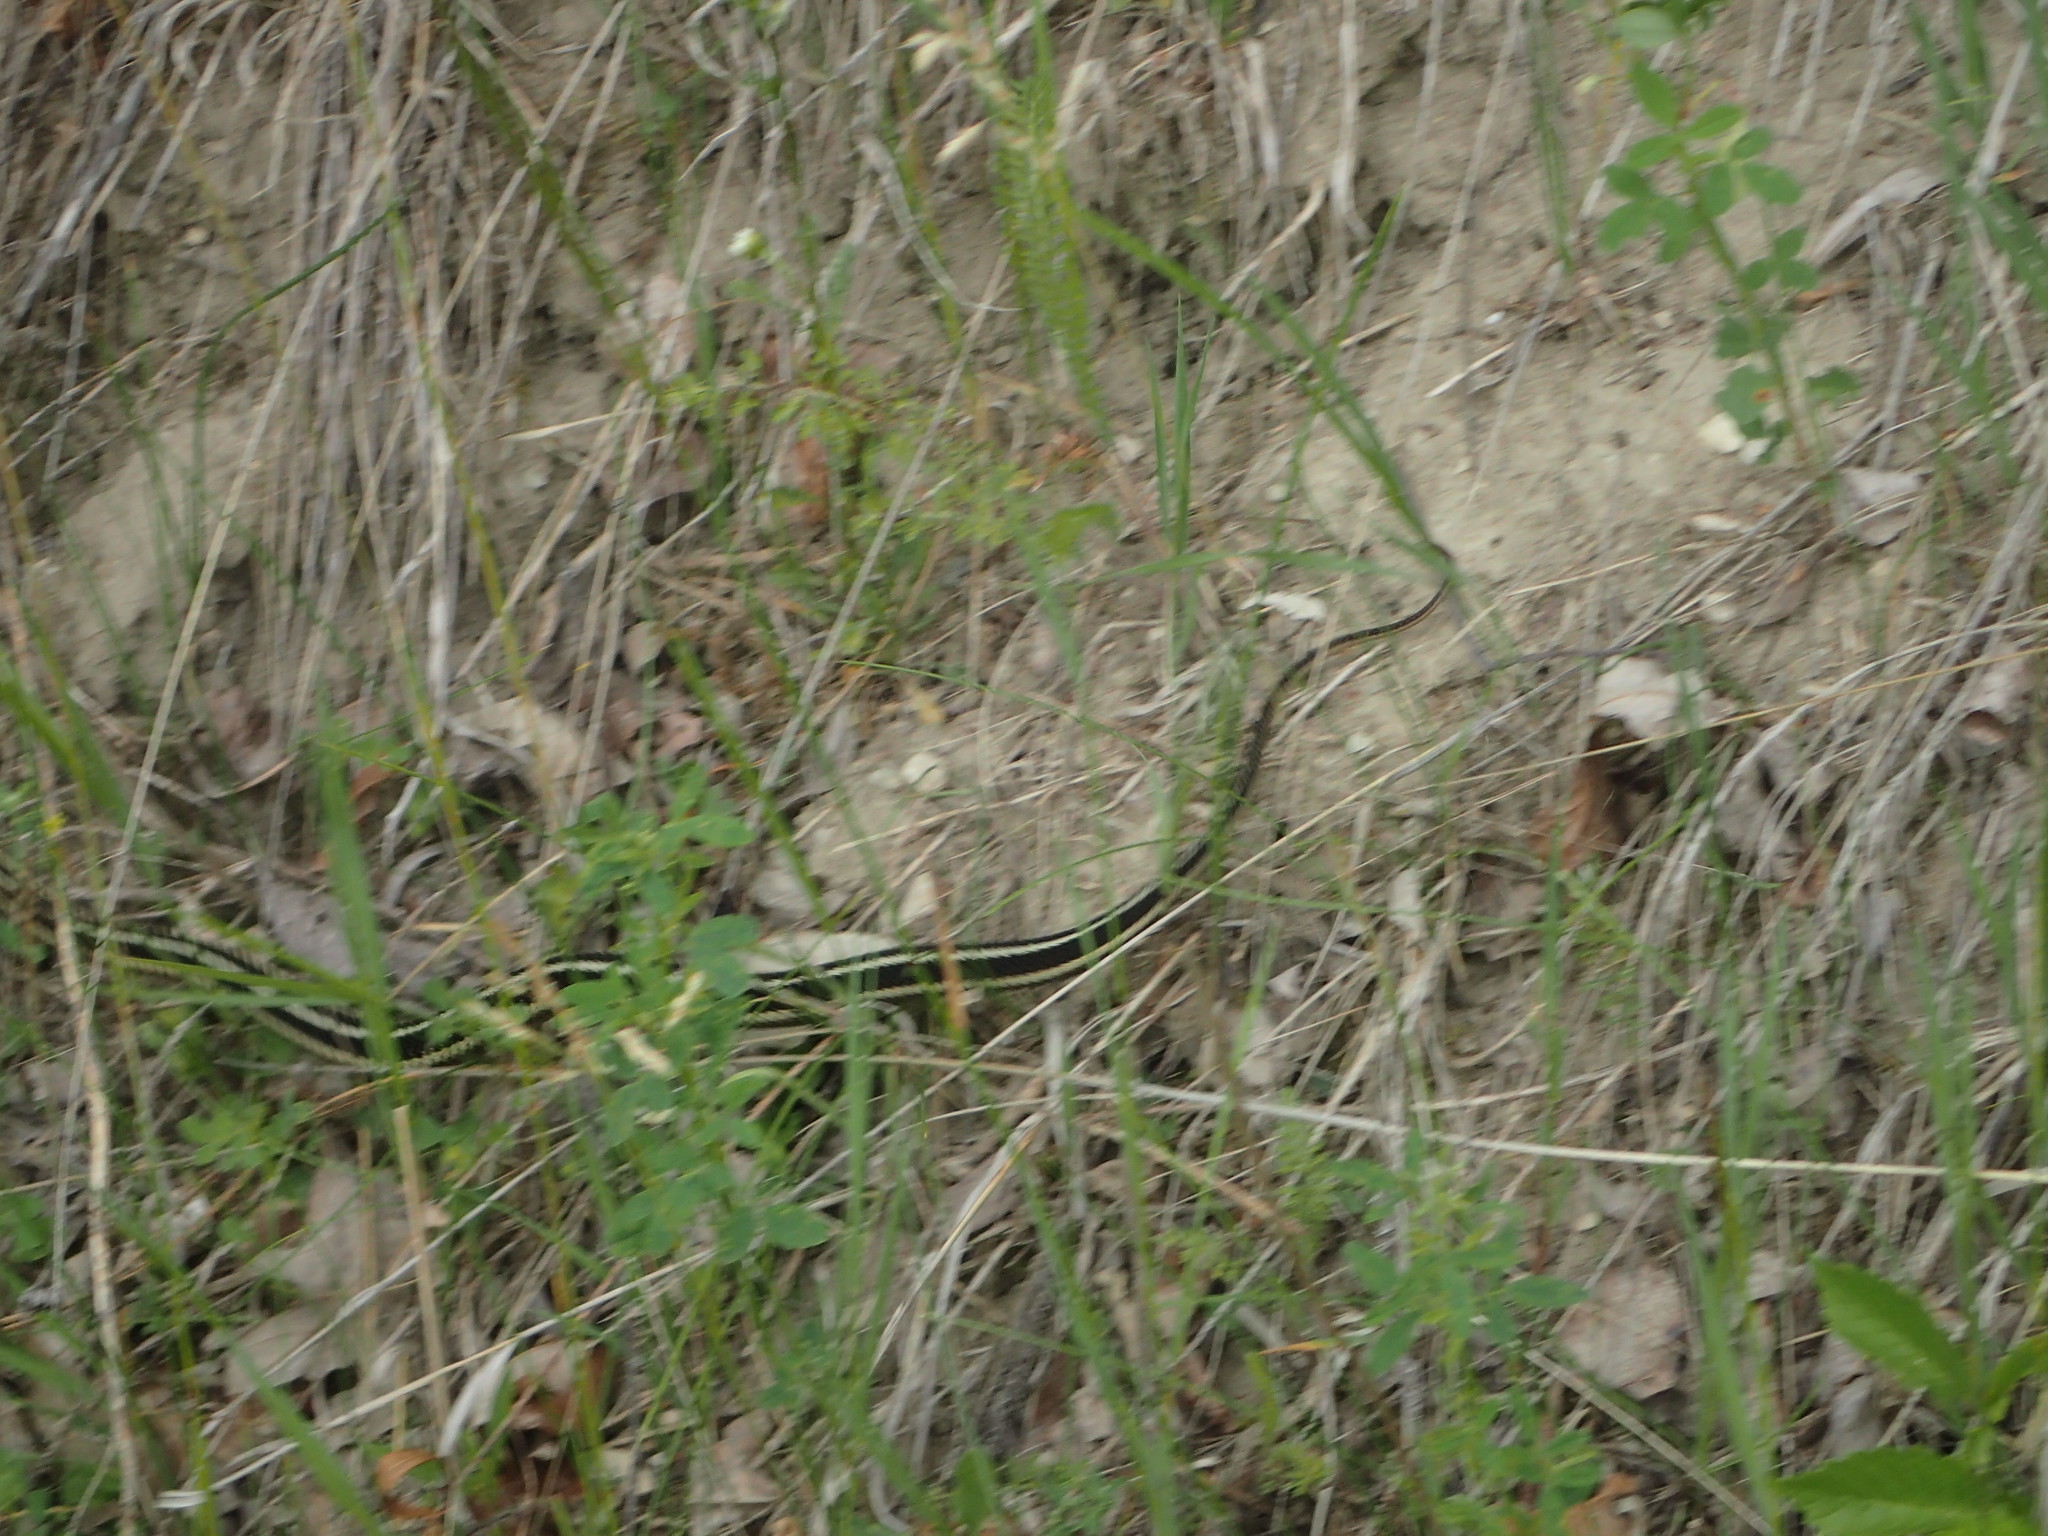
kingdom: Animalia
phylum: Chordata
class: Squamata
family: Colubridae
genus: Thamnophis
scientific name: Thamnophis sirtalis
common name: Common garter snake
